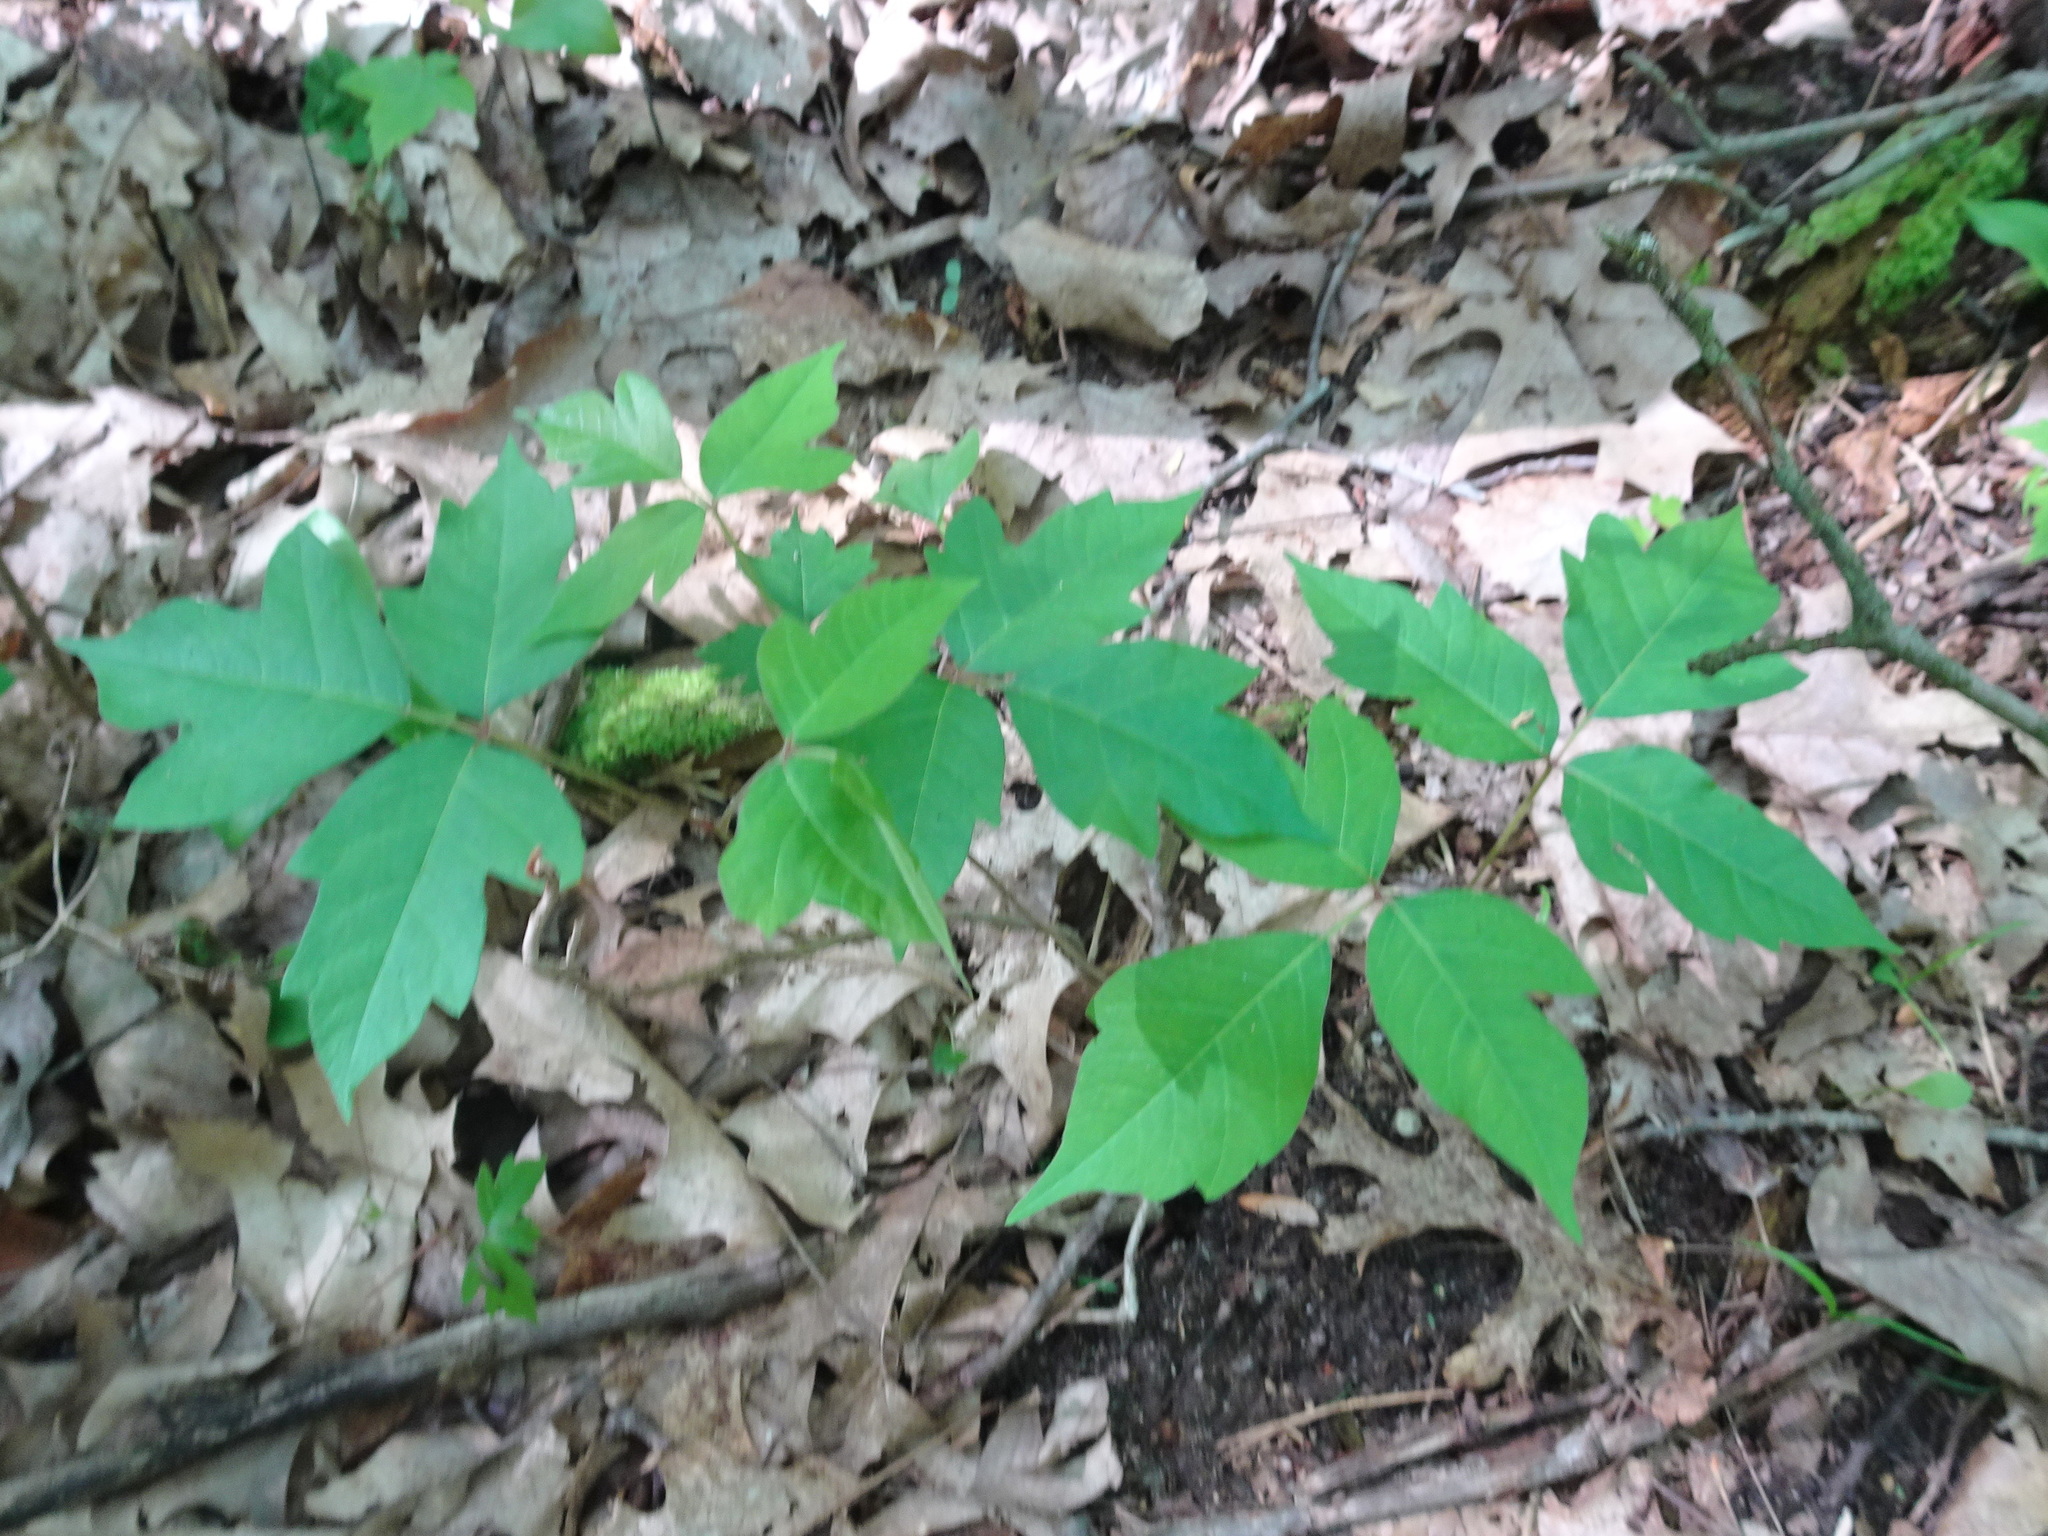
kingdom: Plantae
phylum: Tracheophyta
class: Magnoliopsida
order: Sapindales
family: Anacardiaceae
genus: Toxicodendron
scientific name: Toxicodendron radicans
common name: Poison ivy
